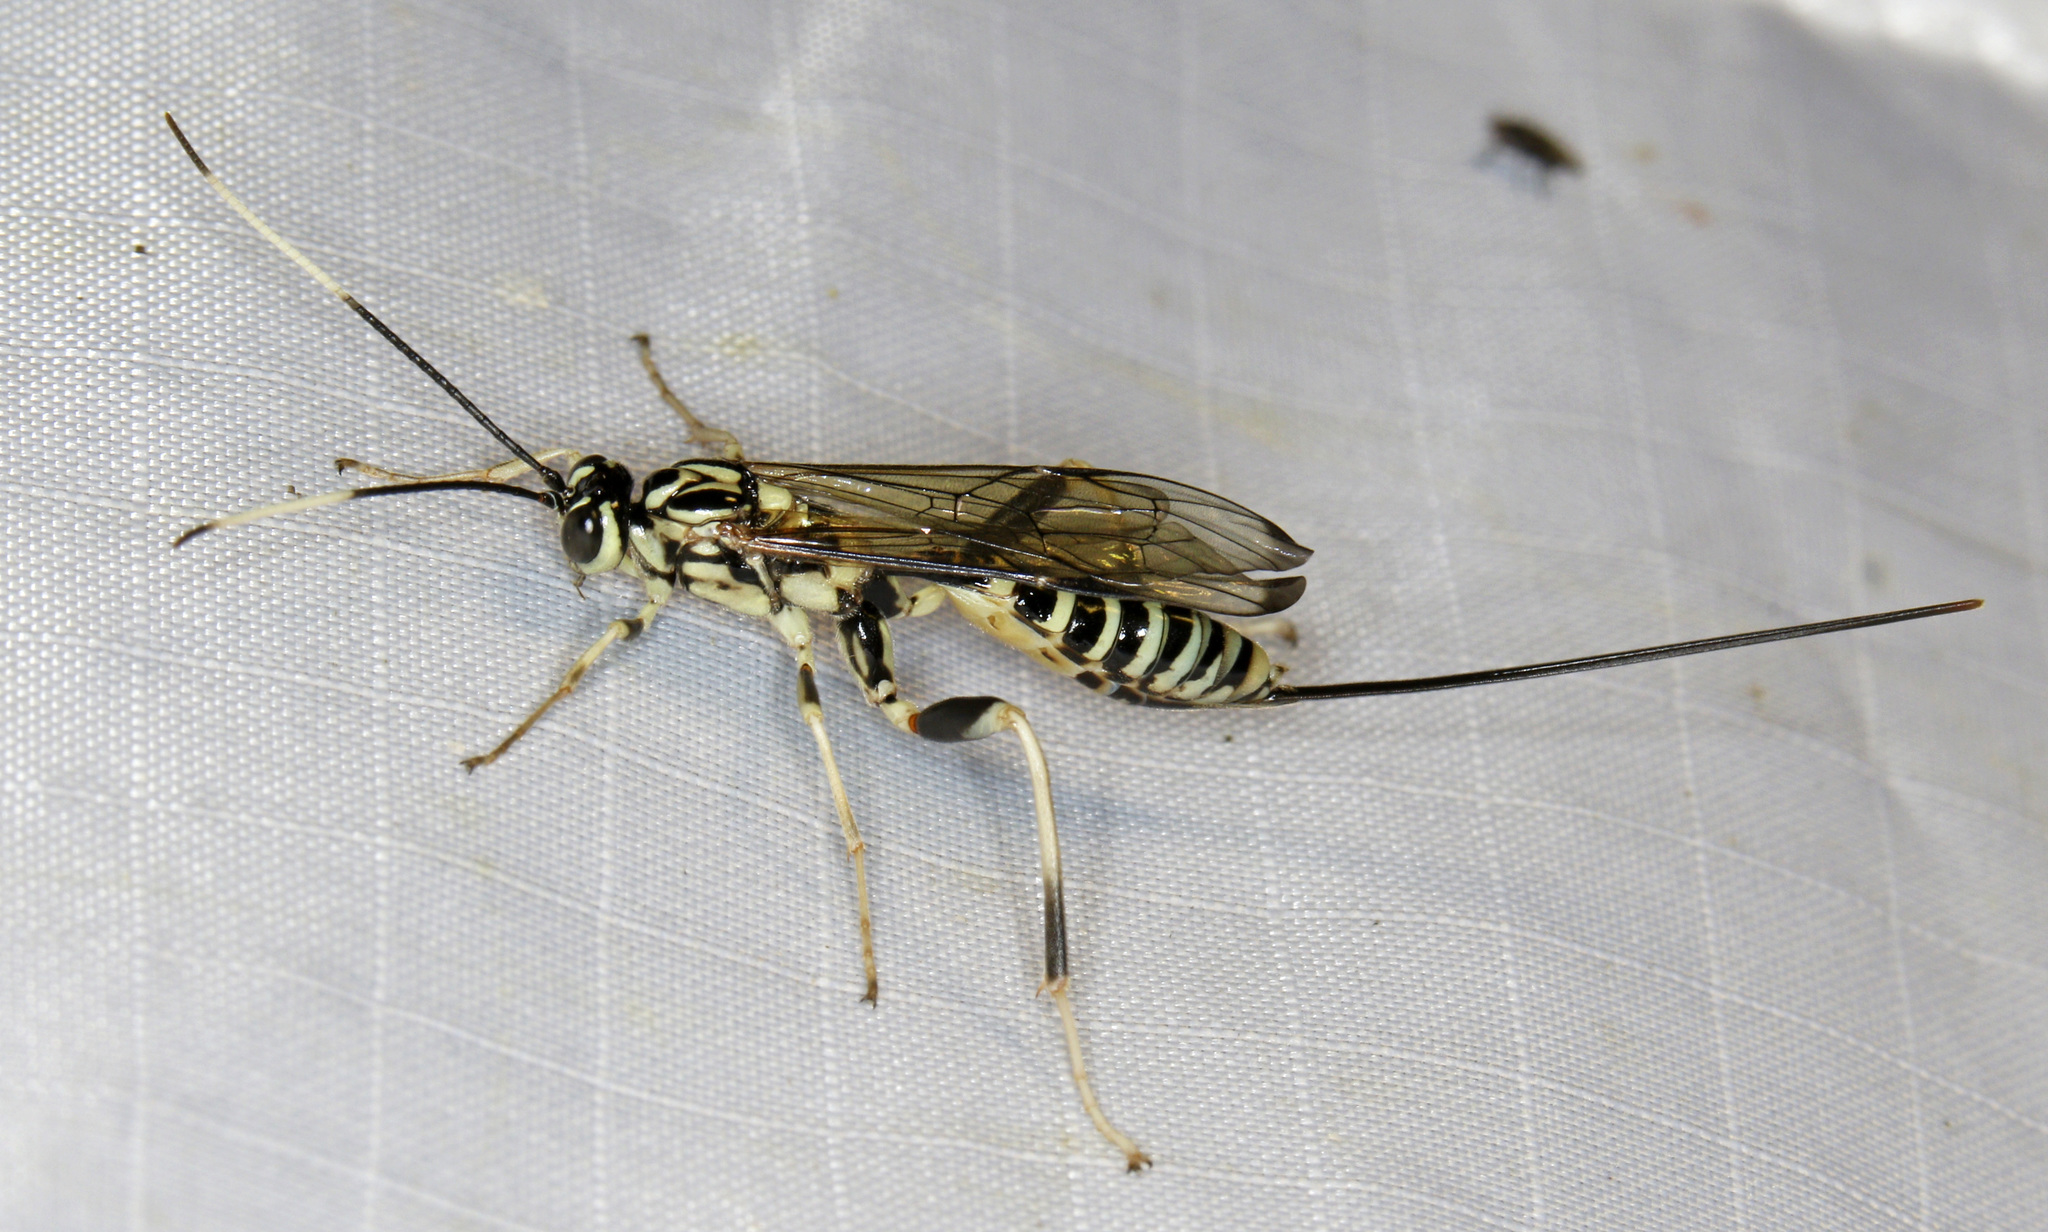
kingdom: Animalia
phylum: Arthropoda
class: Insecta
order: Hymenoptera
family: Ichneumonidae
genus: Arotes
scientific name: Arotes amoenus
